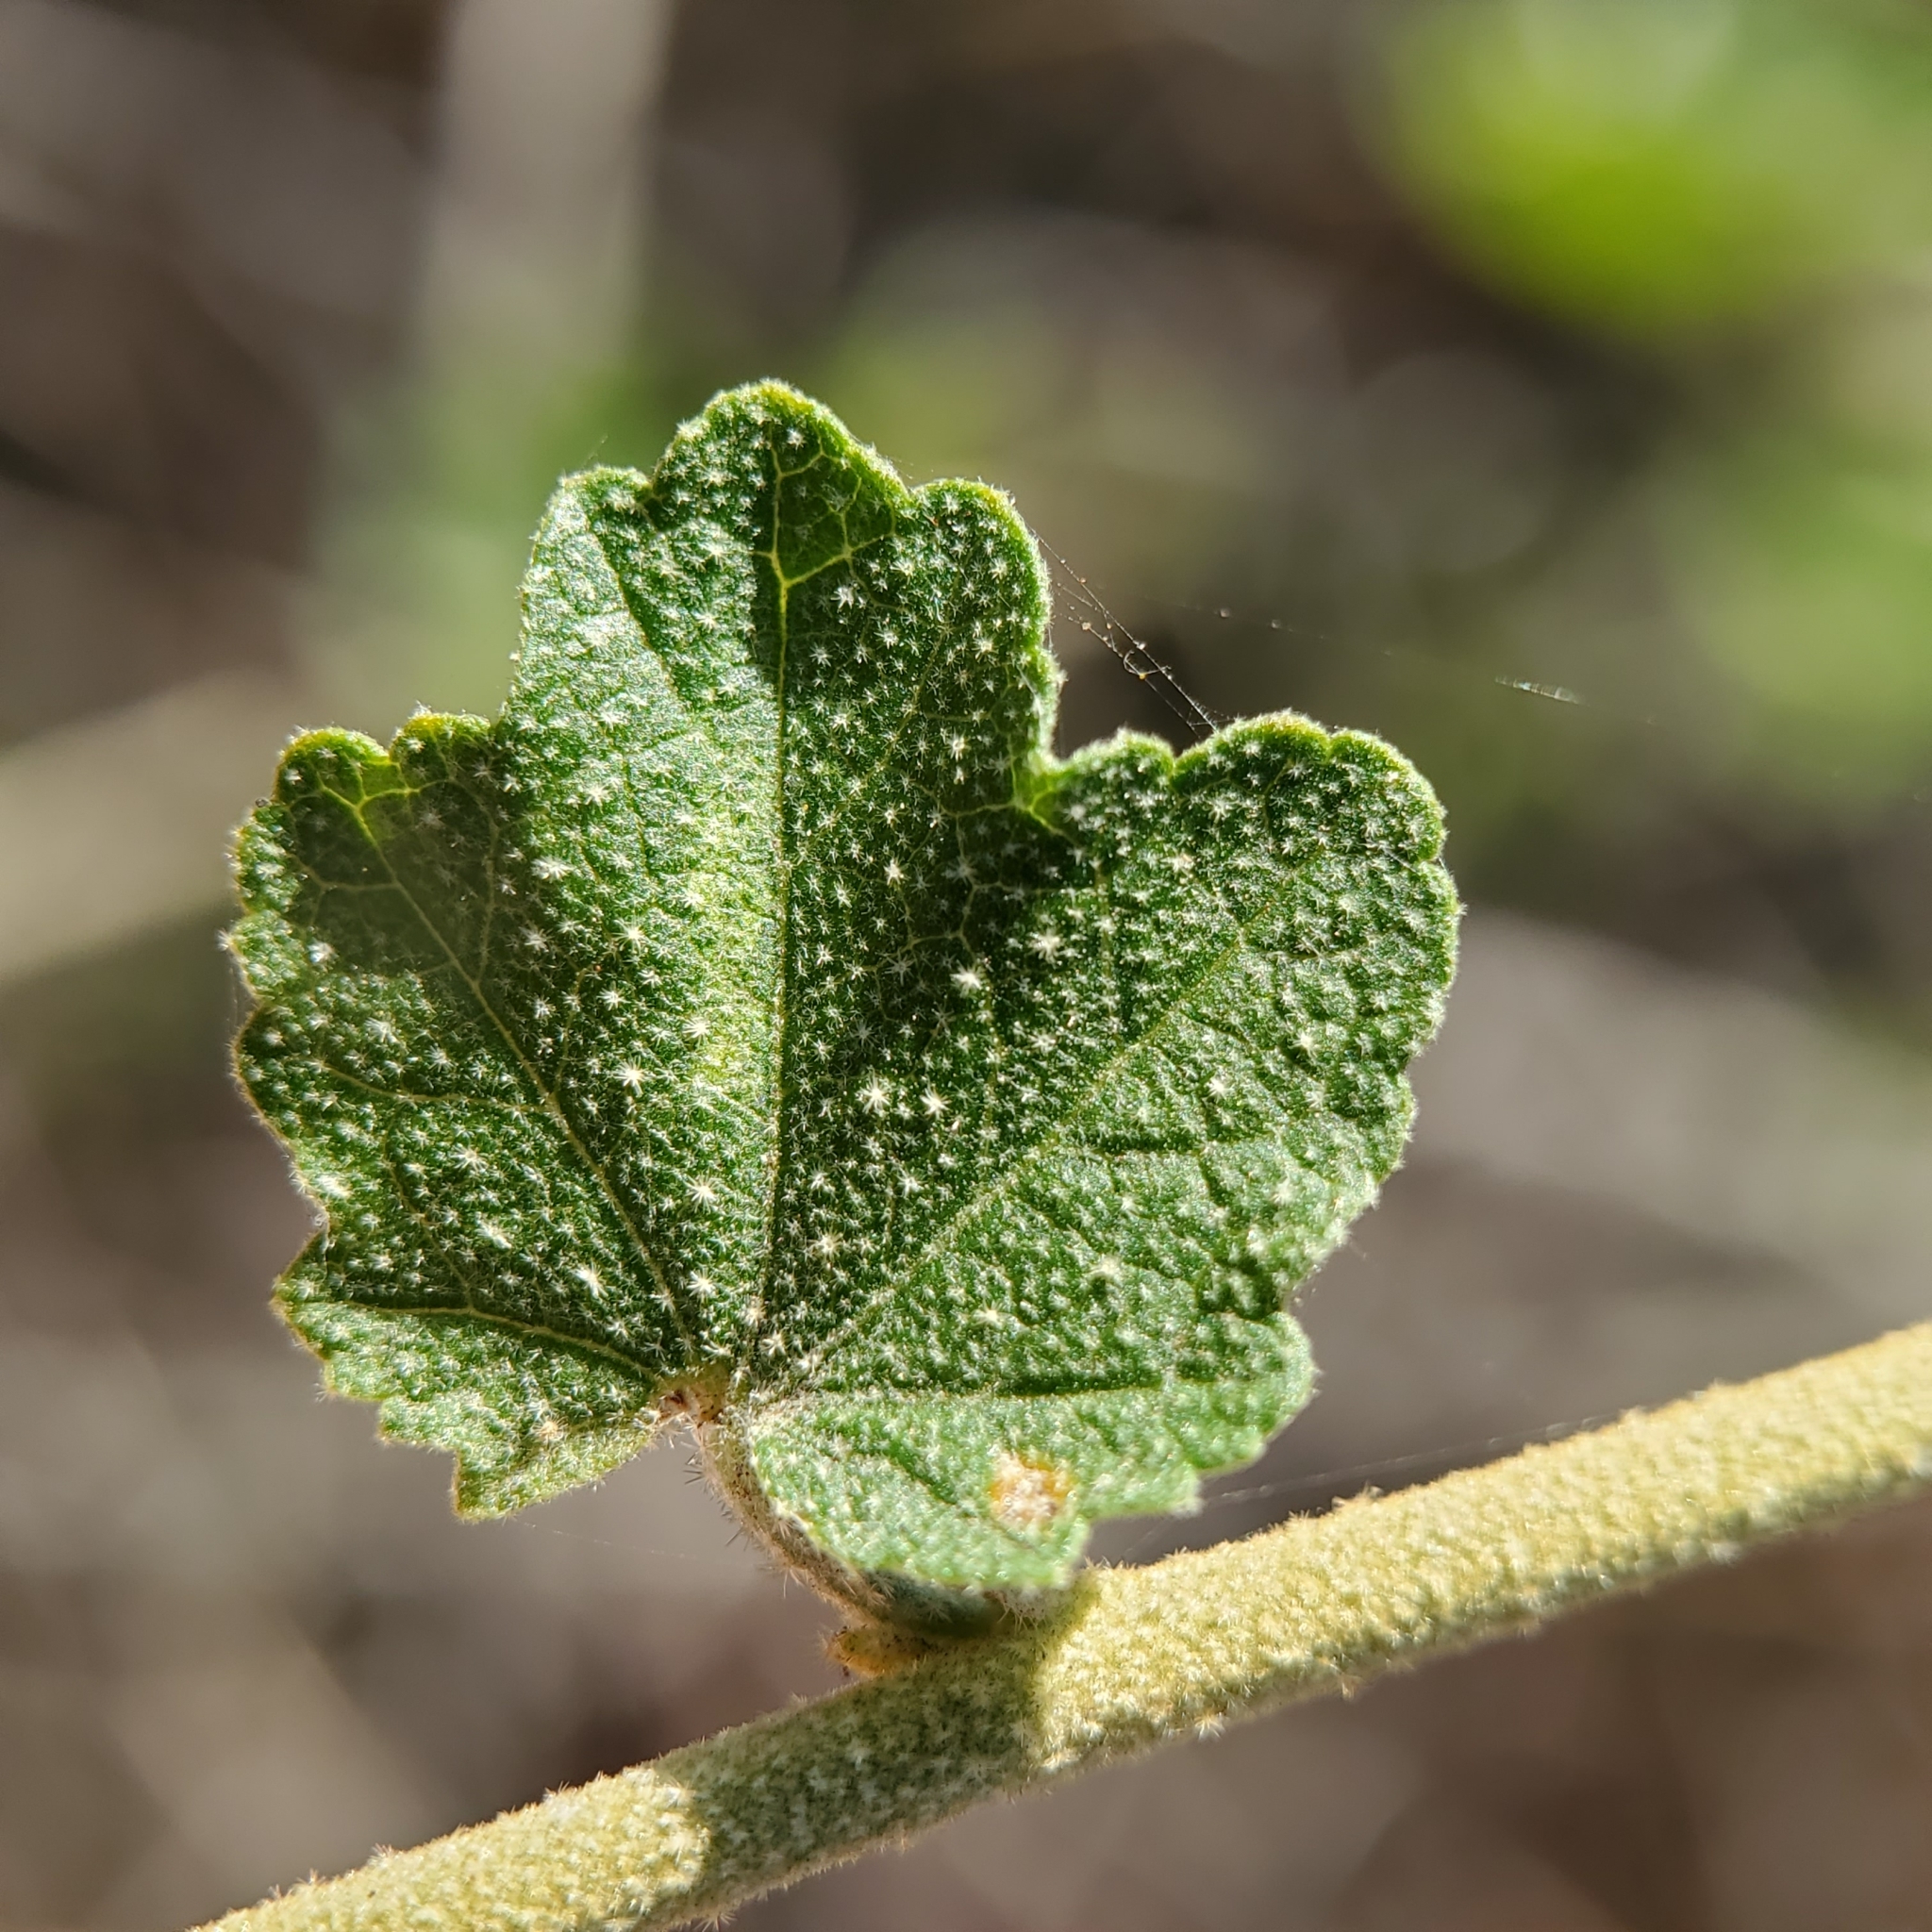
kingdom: Plantae
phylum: Tracheophyta
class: Magnoliopsida
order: Malvales
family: Malvaceae
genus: Malacothamnus
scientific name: Malacothamnus fasciculatus
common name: Sant cruz island bush-mallow
